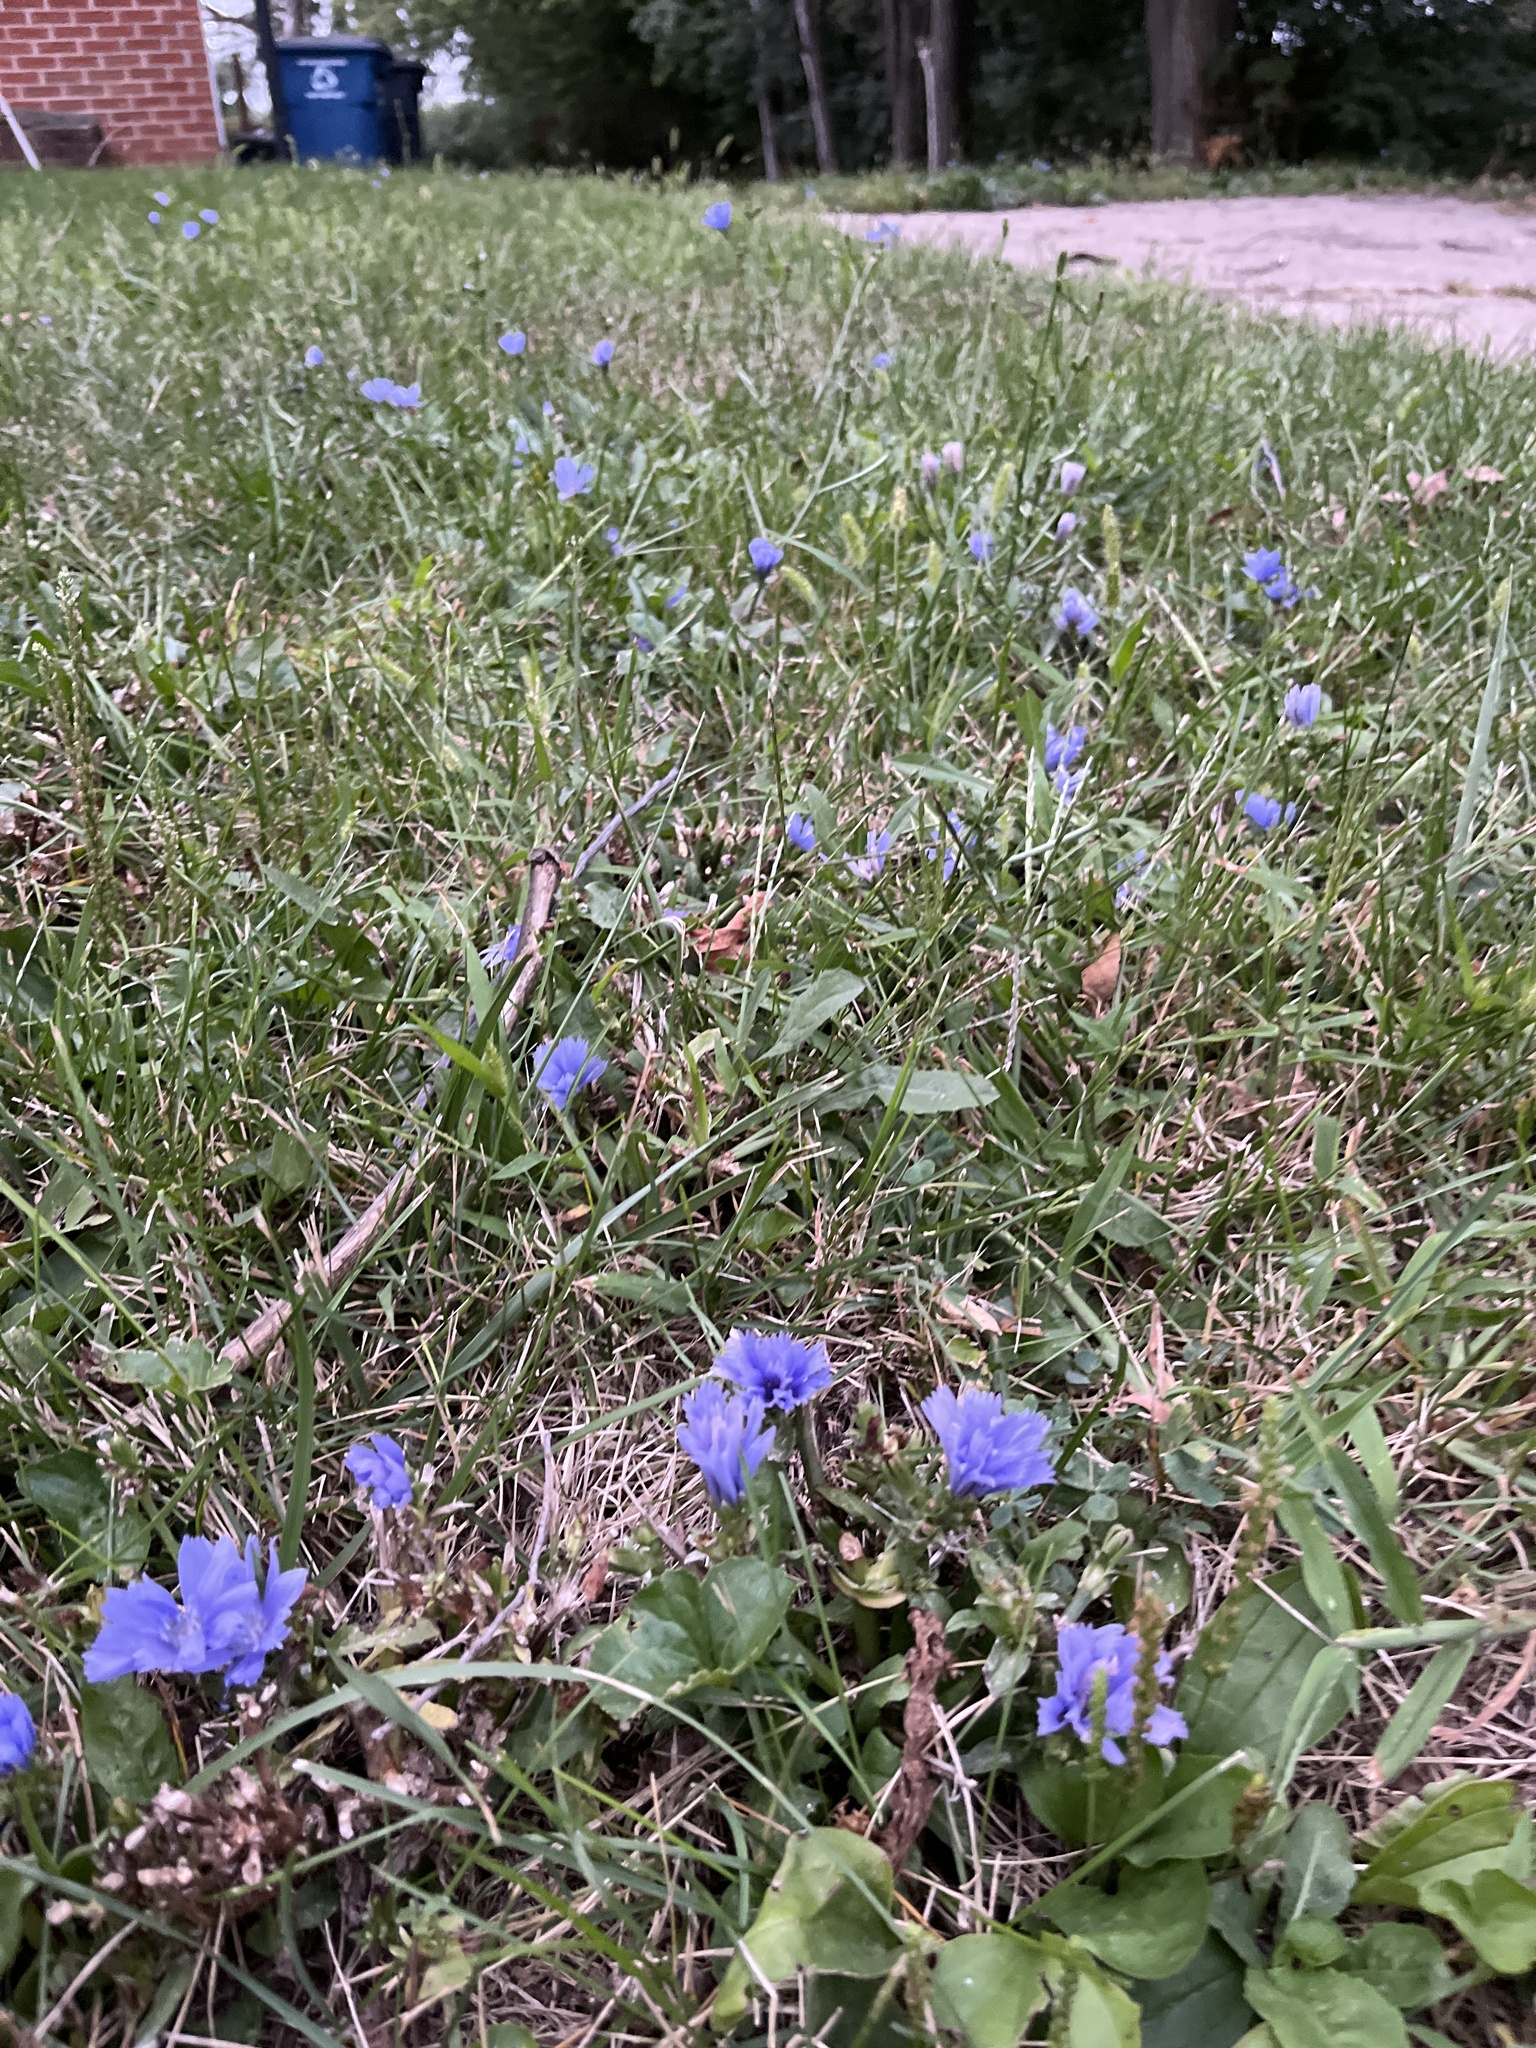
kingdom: Plantae
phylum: Tracheophyta
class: Magnoliopsida
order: Asterales
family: Asteraceae
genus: Cichorium
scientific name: Cichorium intybus
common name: Chicory
